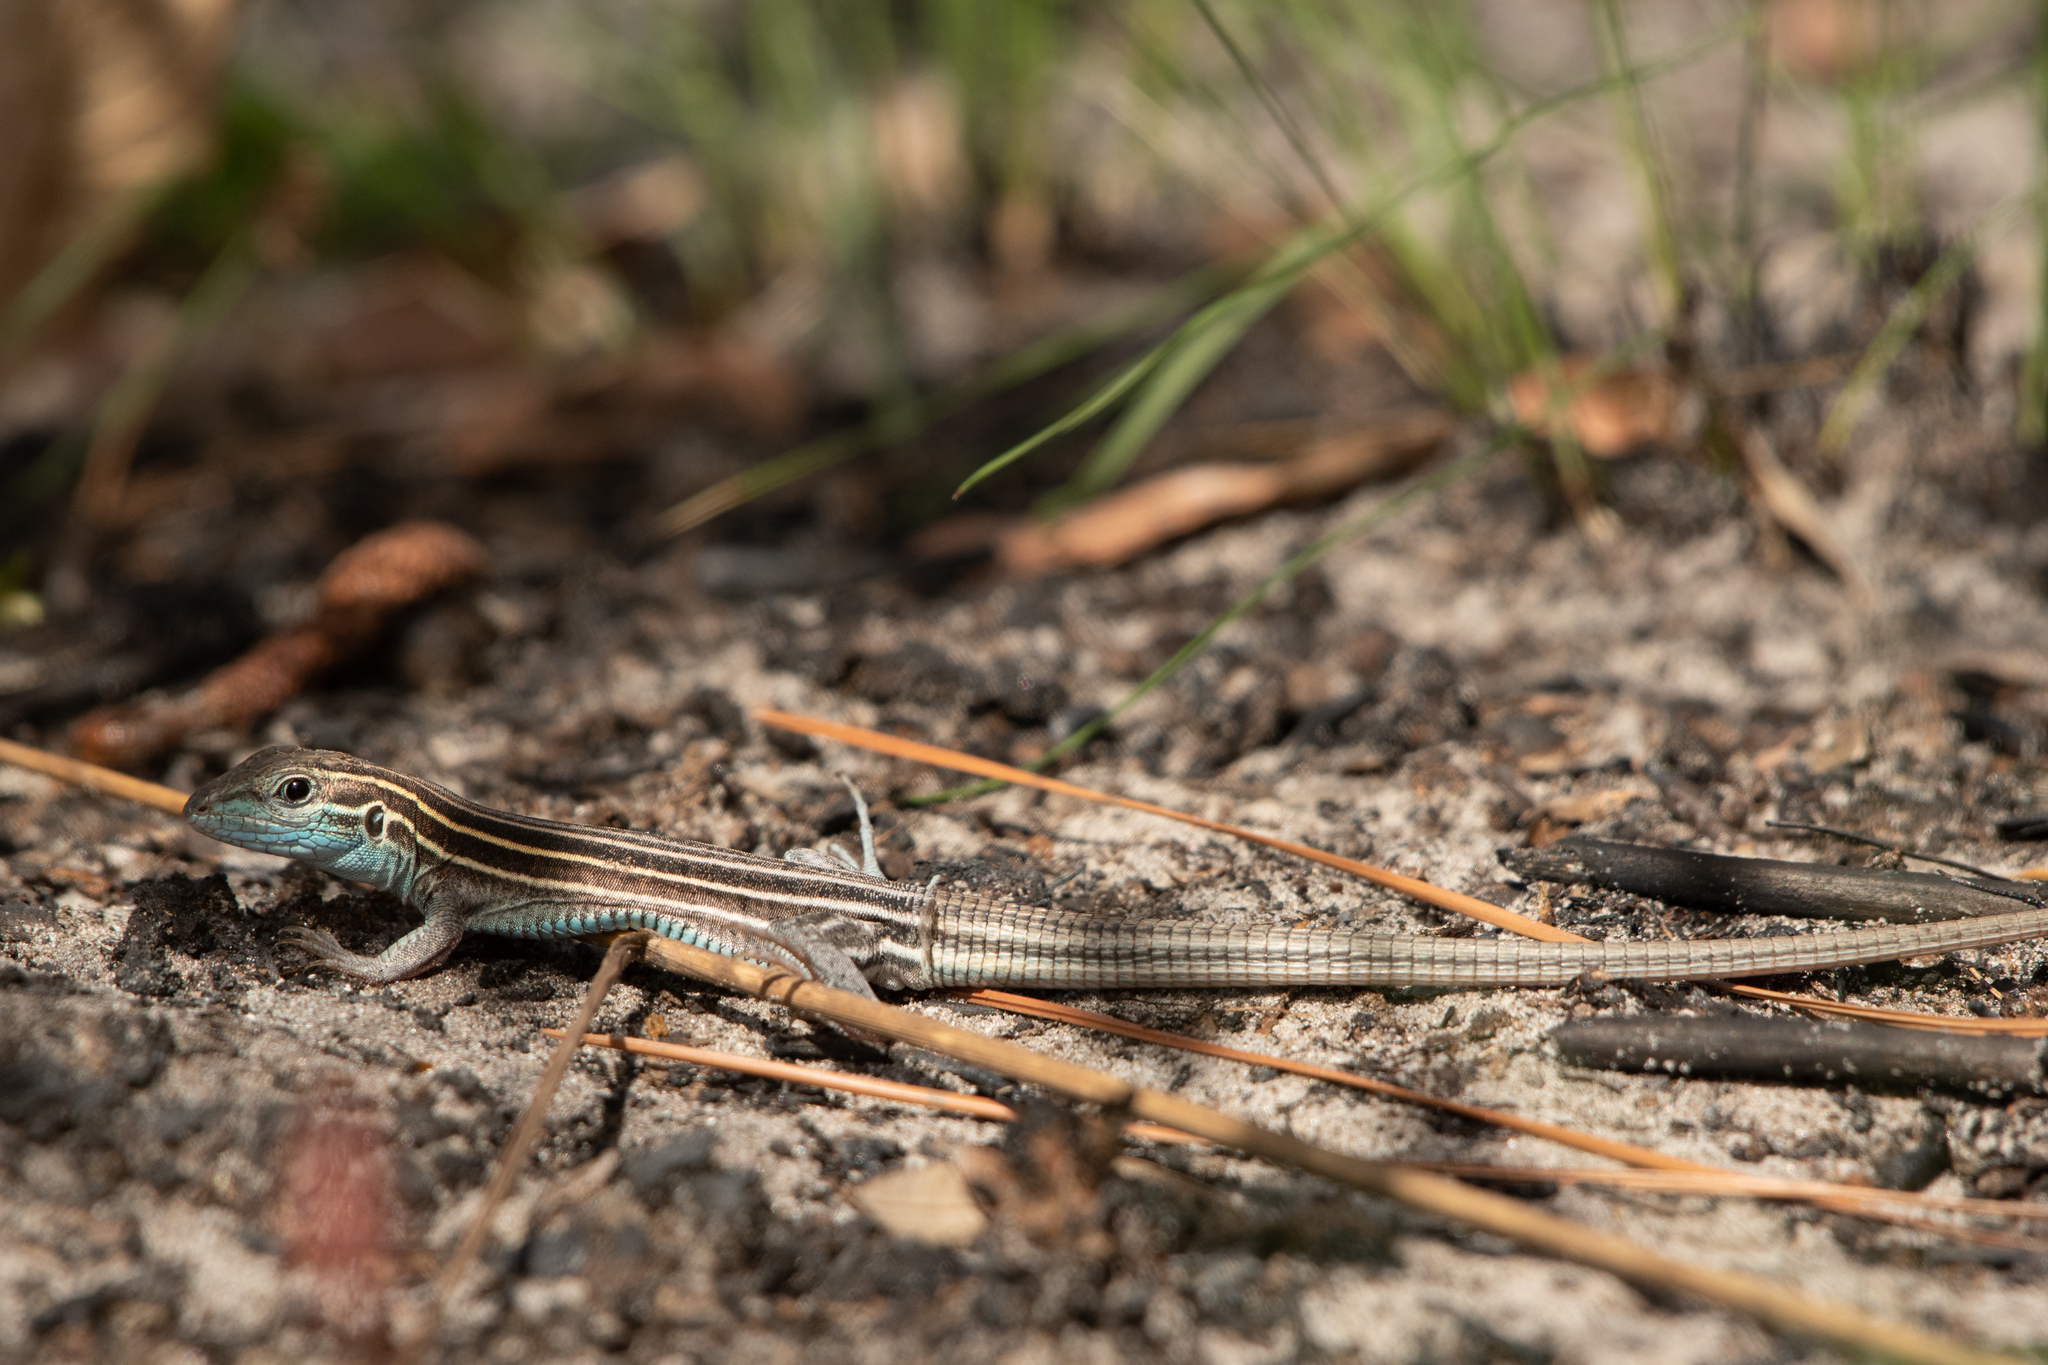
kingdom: Animalia
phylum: Chordata
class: Squamata
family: Teiidae
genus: Aspidoscelis
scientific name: Aspidoscelis sexlineatus
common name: Six-lined racerunner
